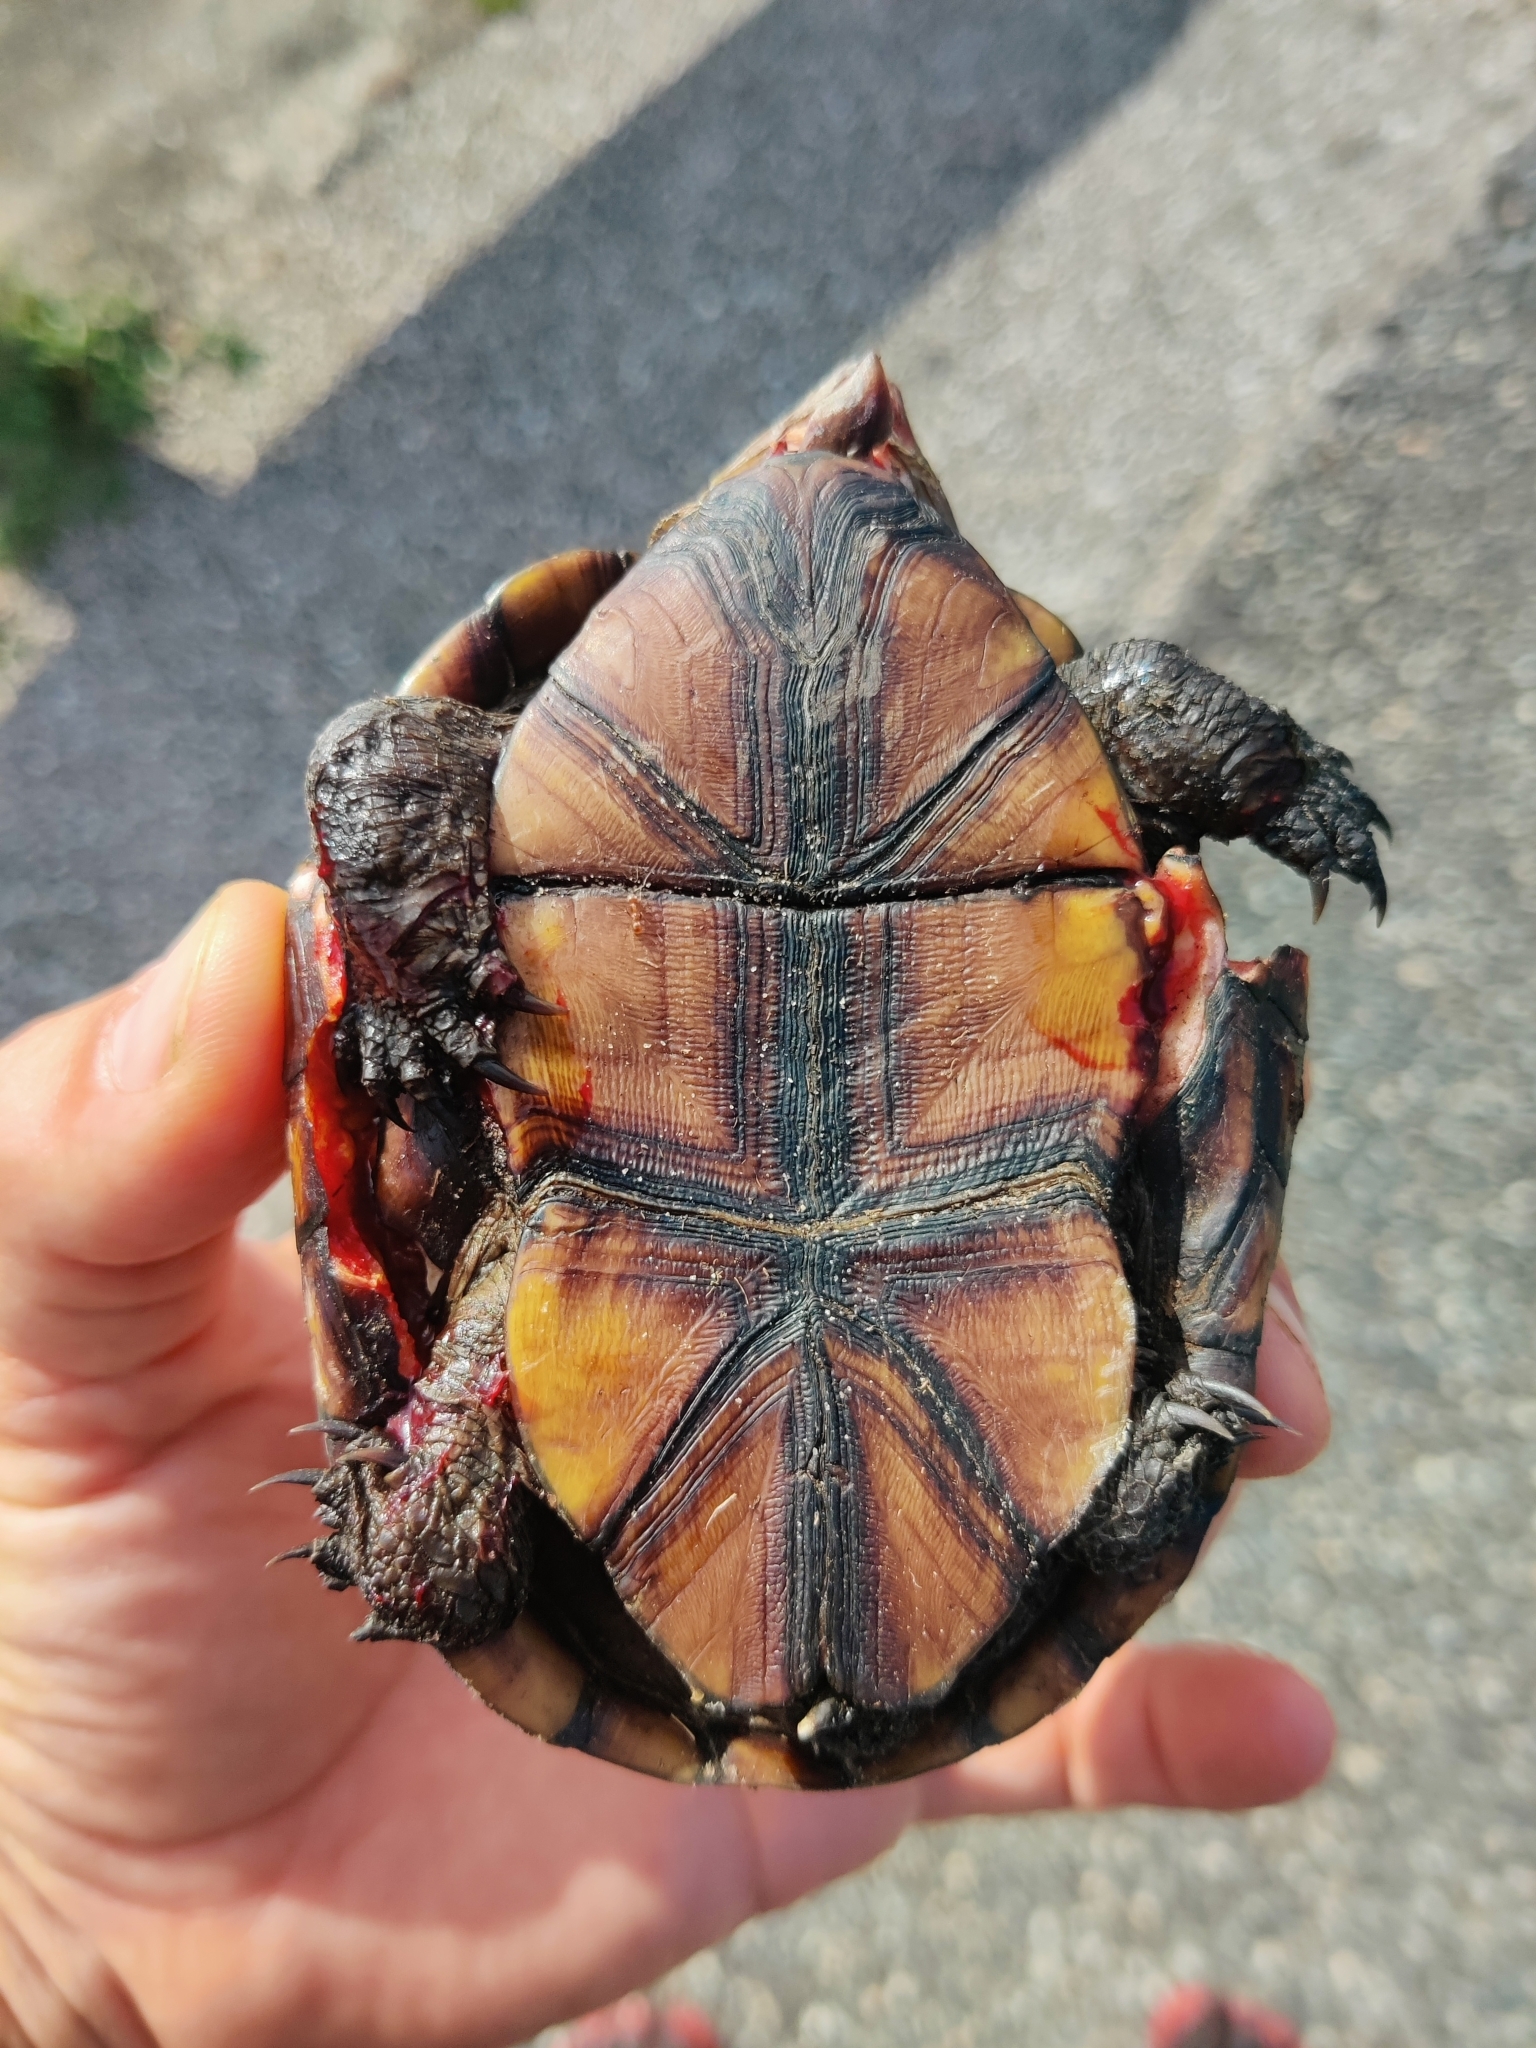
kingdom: Animalia
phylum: Chordata
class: Testudines
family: Kinosternidae
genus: Kinosternon
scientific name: Kinosternon subrubrum
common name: Eastern mud turtle
